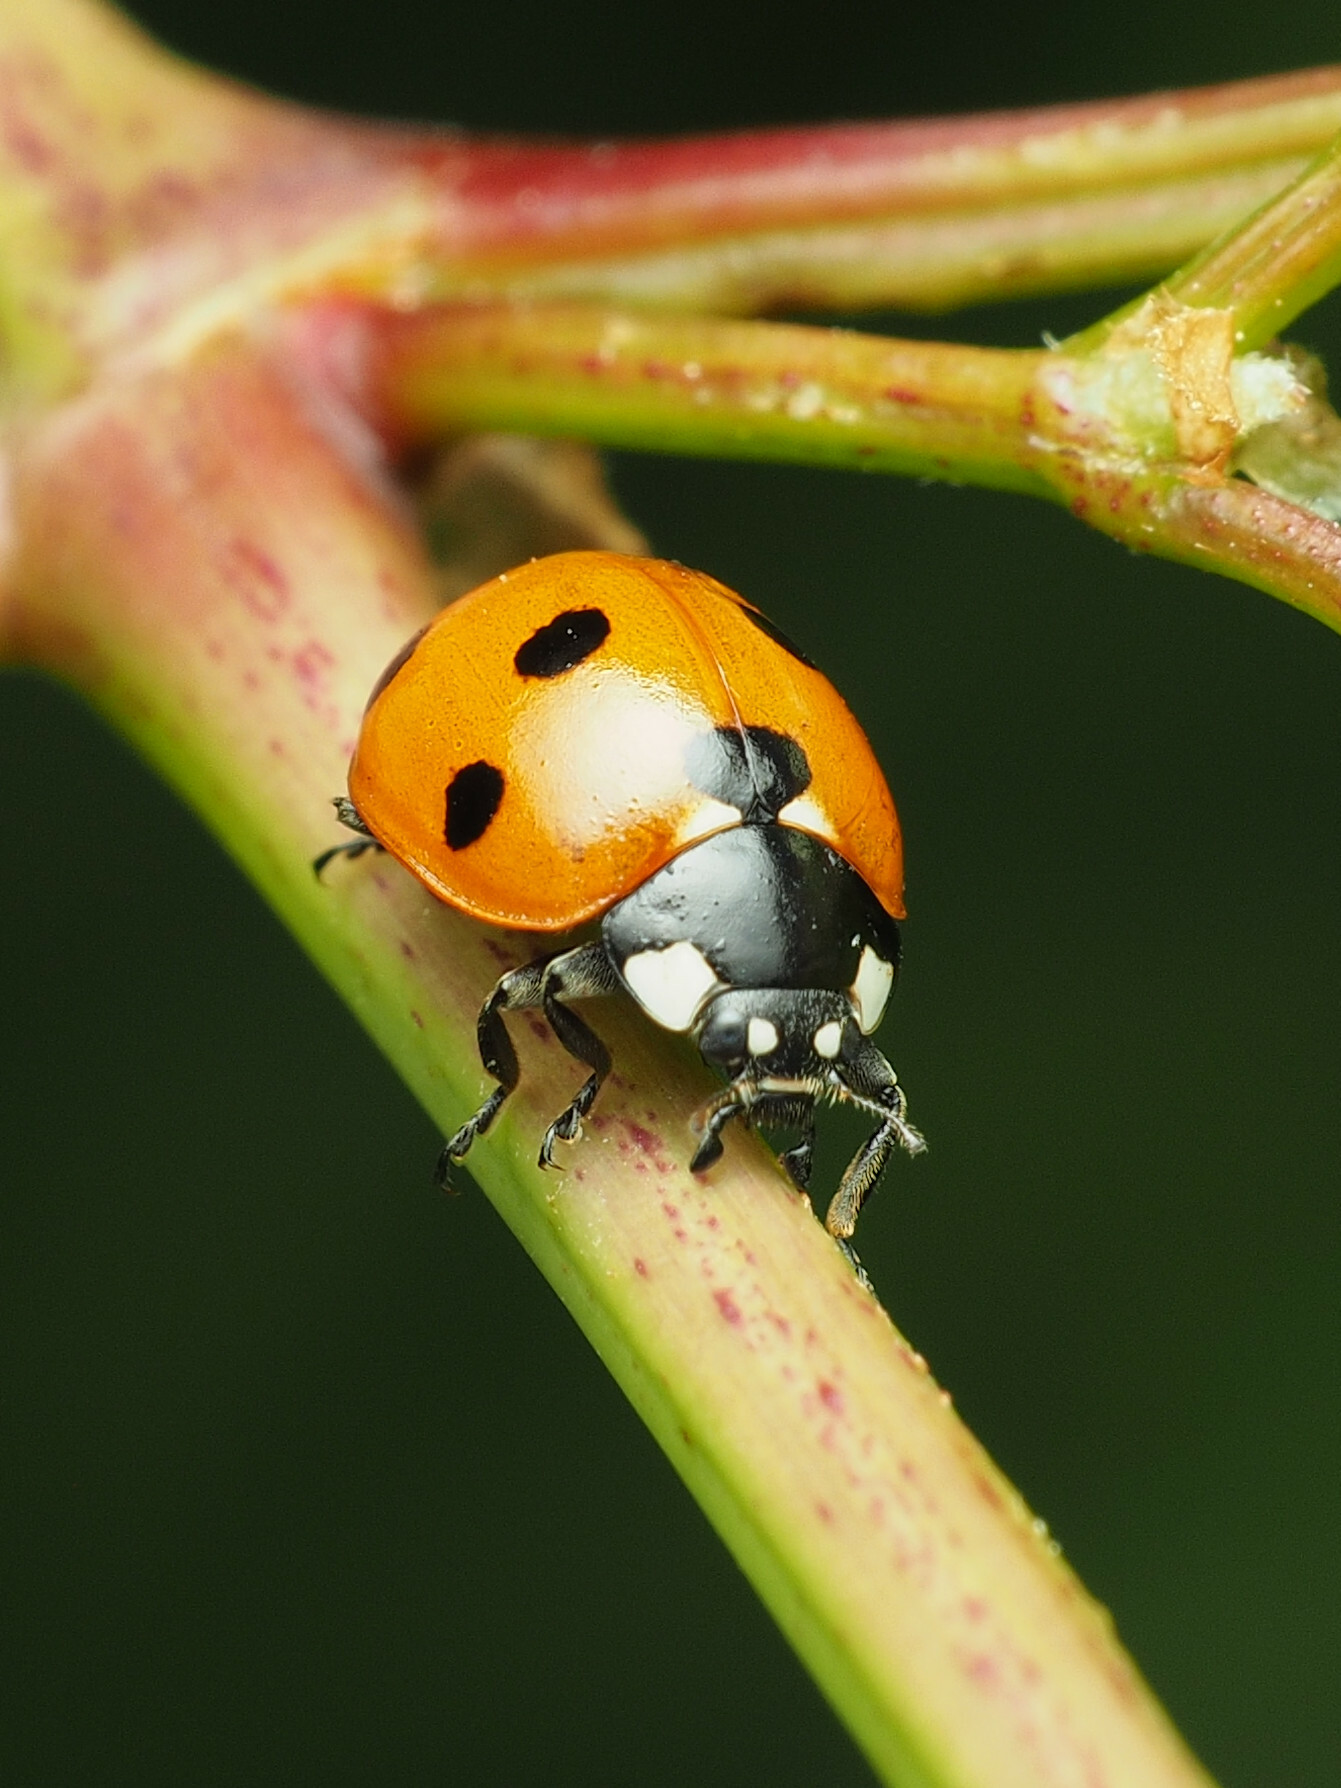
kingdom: Animalia
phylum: Arthropoda
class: Insecta
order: Coleoptera
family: Coccinellidae
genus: Coccinella
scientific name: Coccinella septempunctata
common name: Sevenspotted lady beetle
